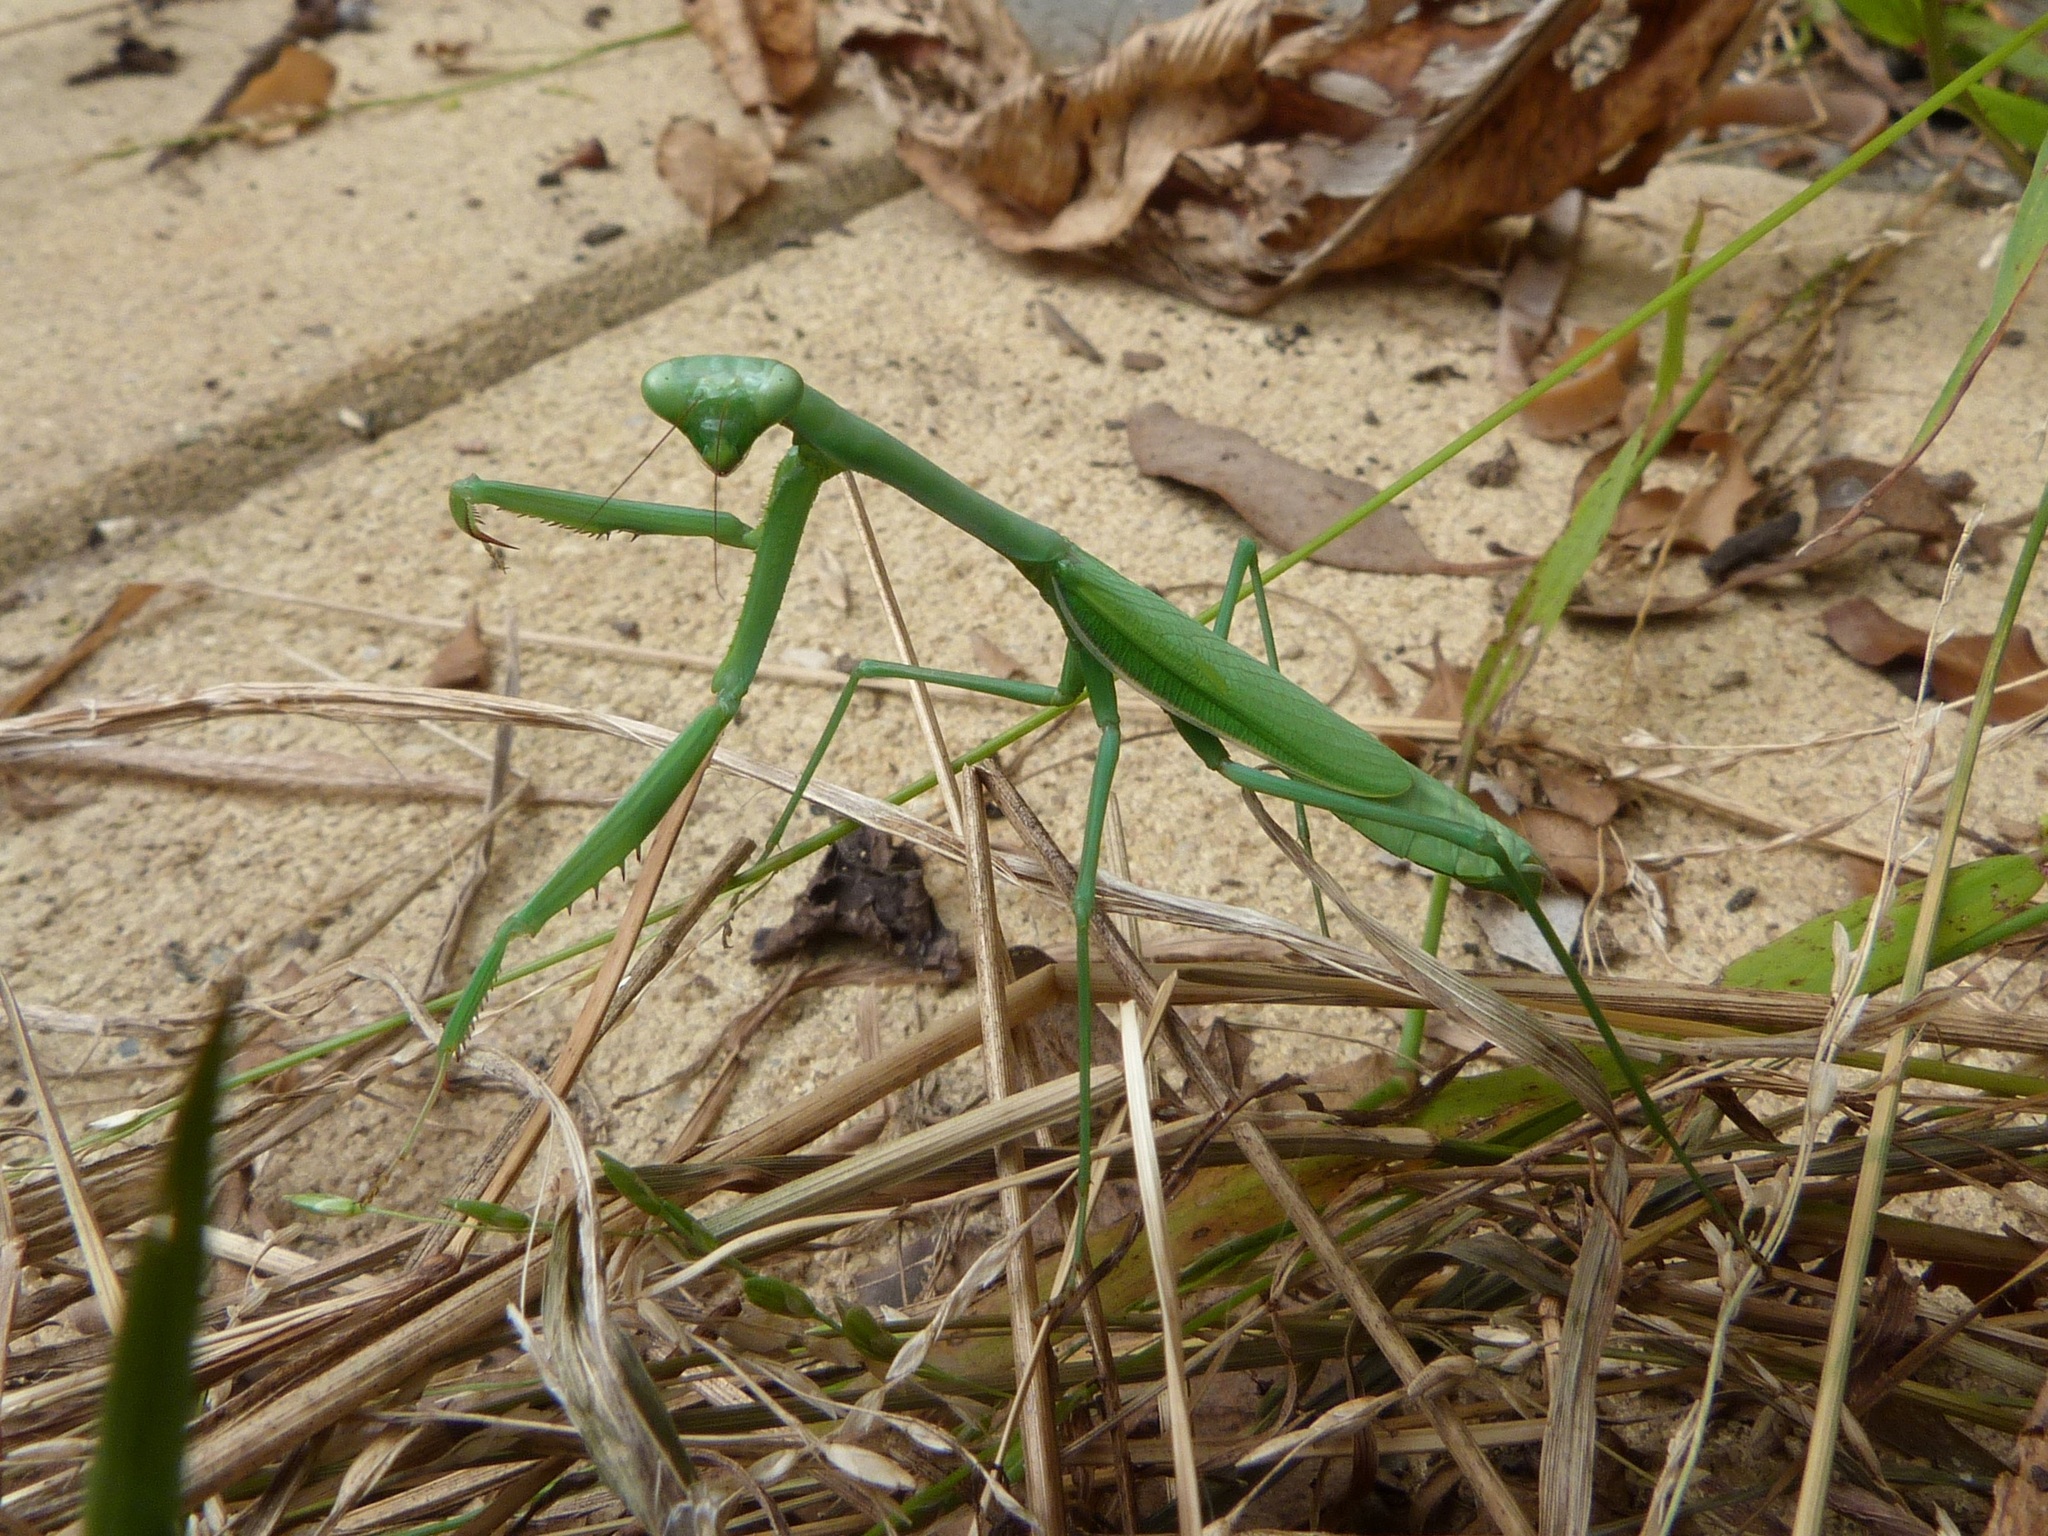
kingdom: Animalia
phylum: Arthropoda
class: Insecta
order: Mantodea
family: Mantidae
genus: Pseudomantis
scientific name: Pseudomantis albofimbriata
